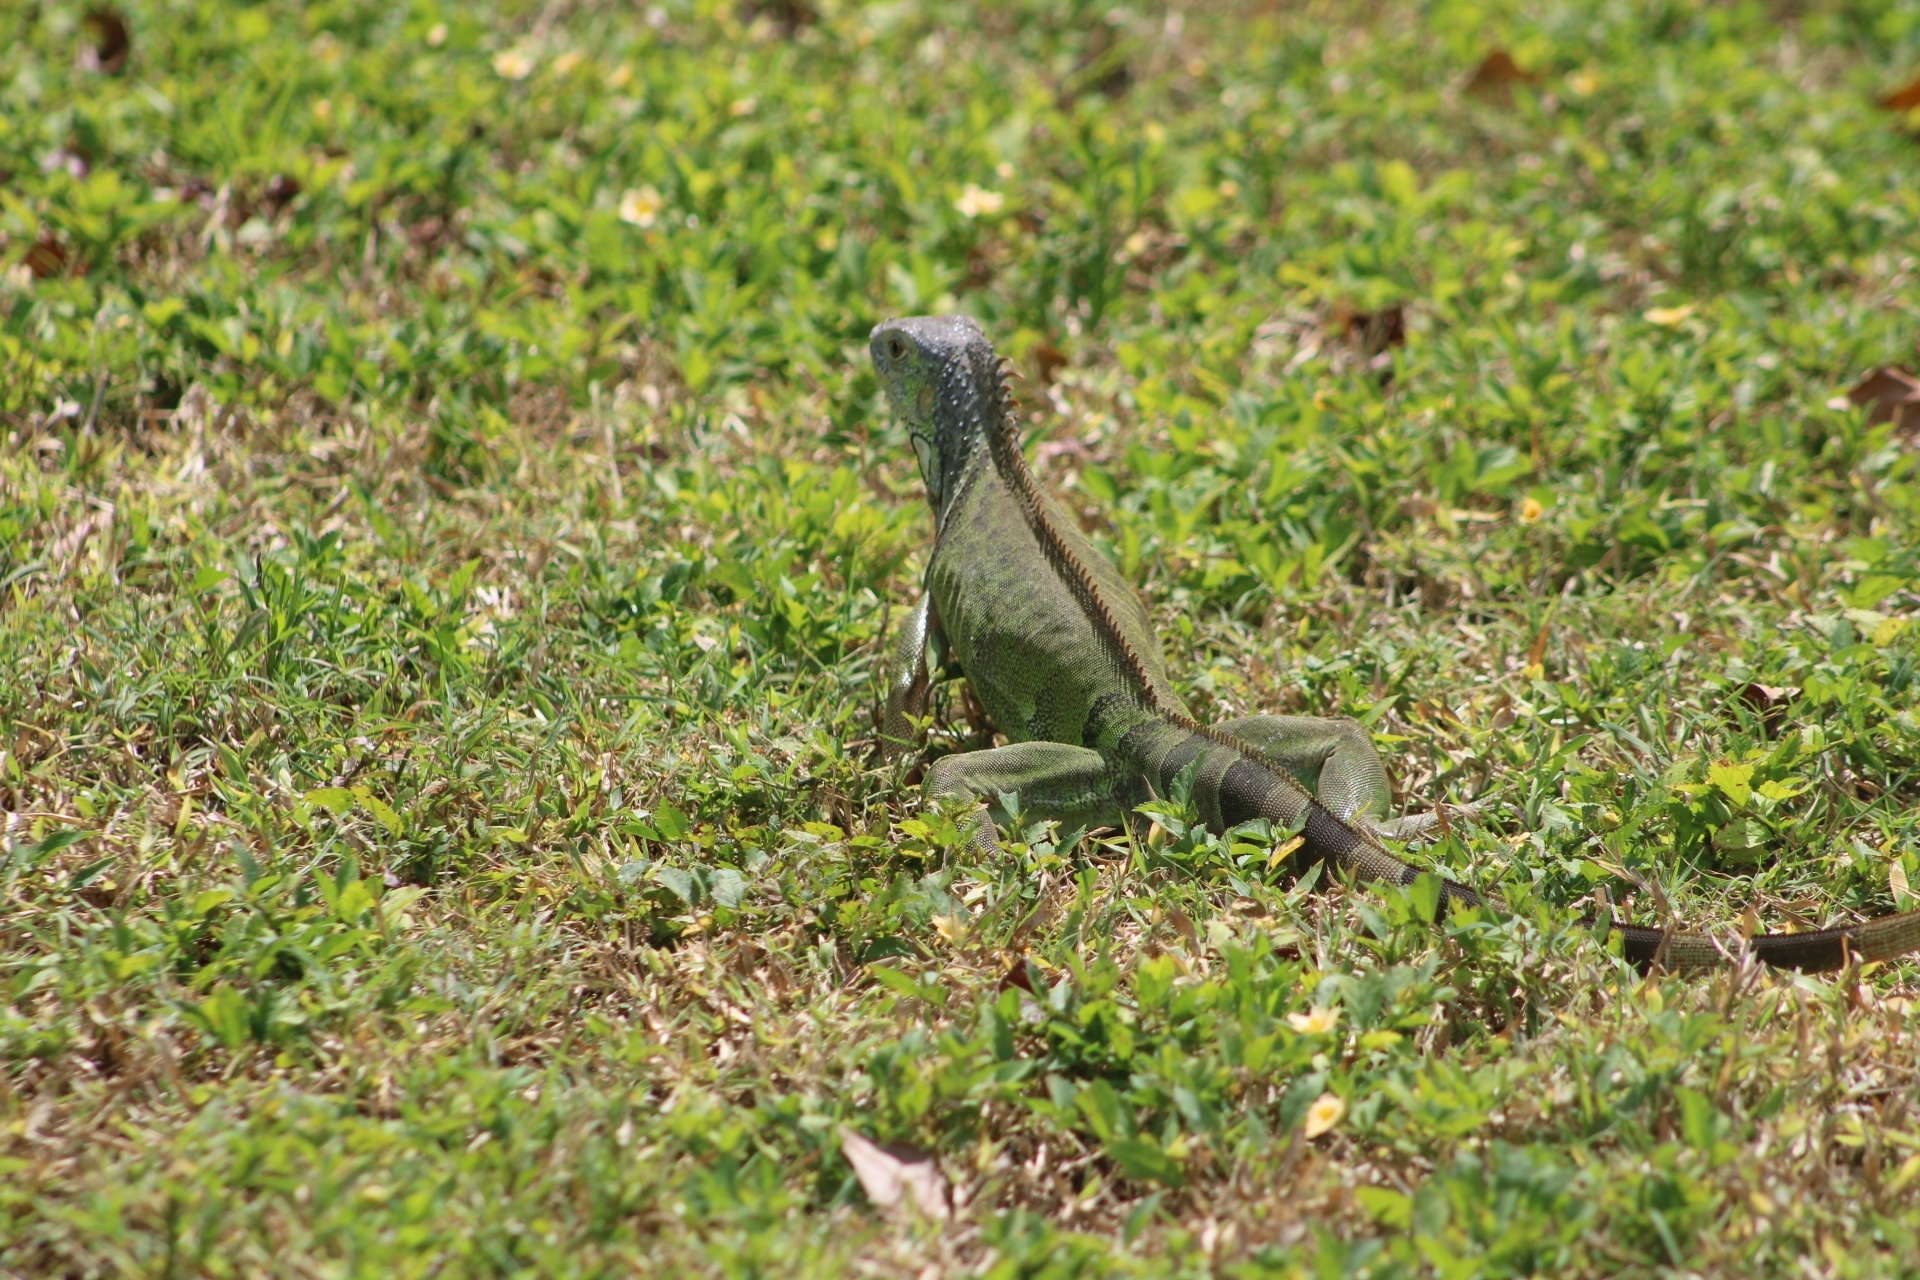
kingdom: Animalia
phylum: Chordata
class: Squamata
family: Iguanidae
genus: Iguana
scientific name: Iguana iguana
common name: Green iguana
